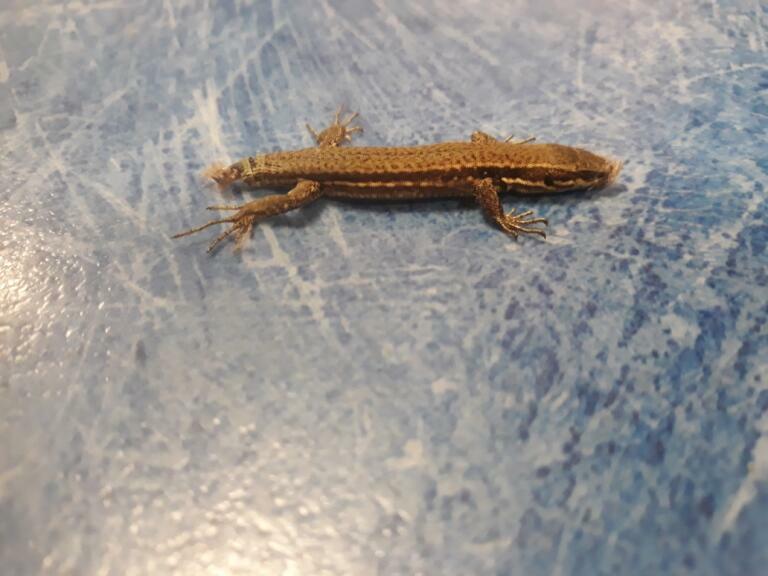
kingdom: Animalia
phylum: Chordata
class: Squamata
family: Lacertidae
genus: Podarcis
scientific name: Podarcis muralis
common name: Common wall lizard
